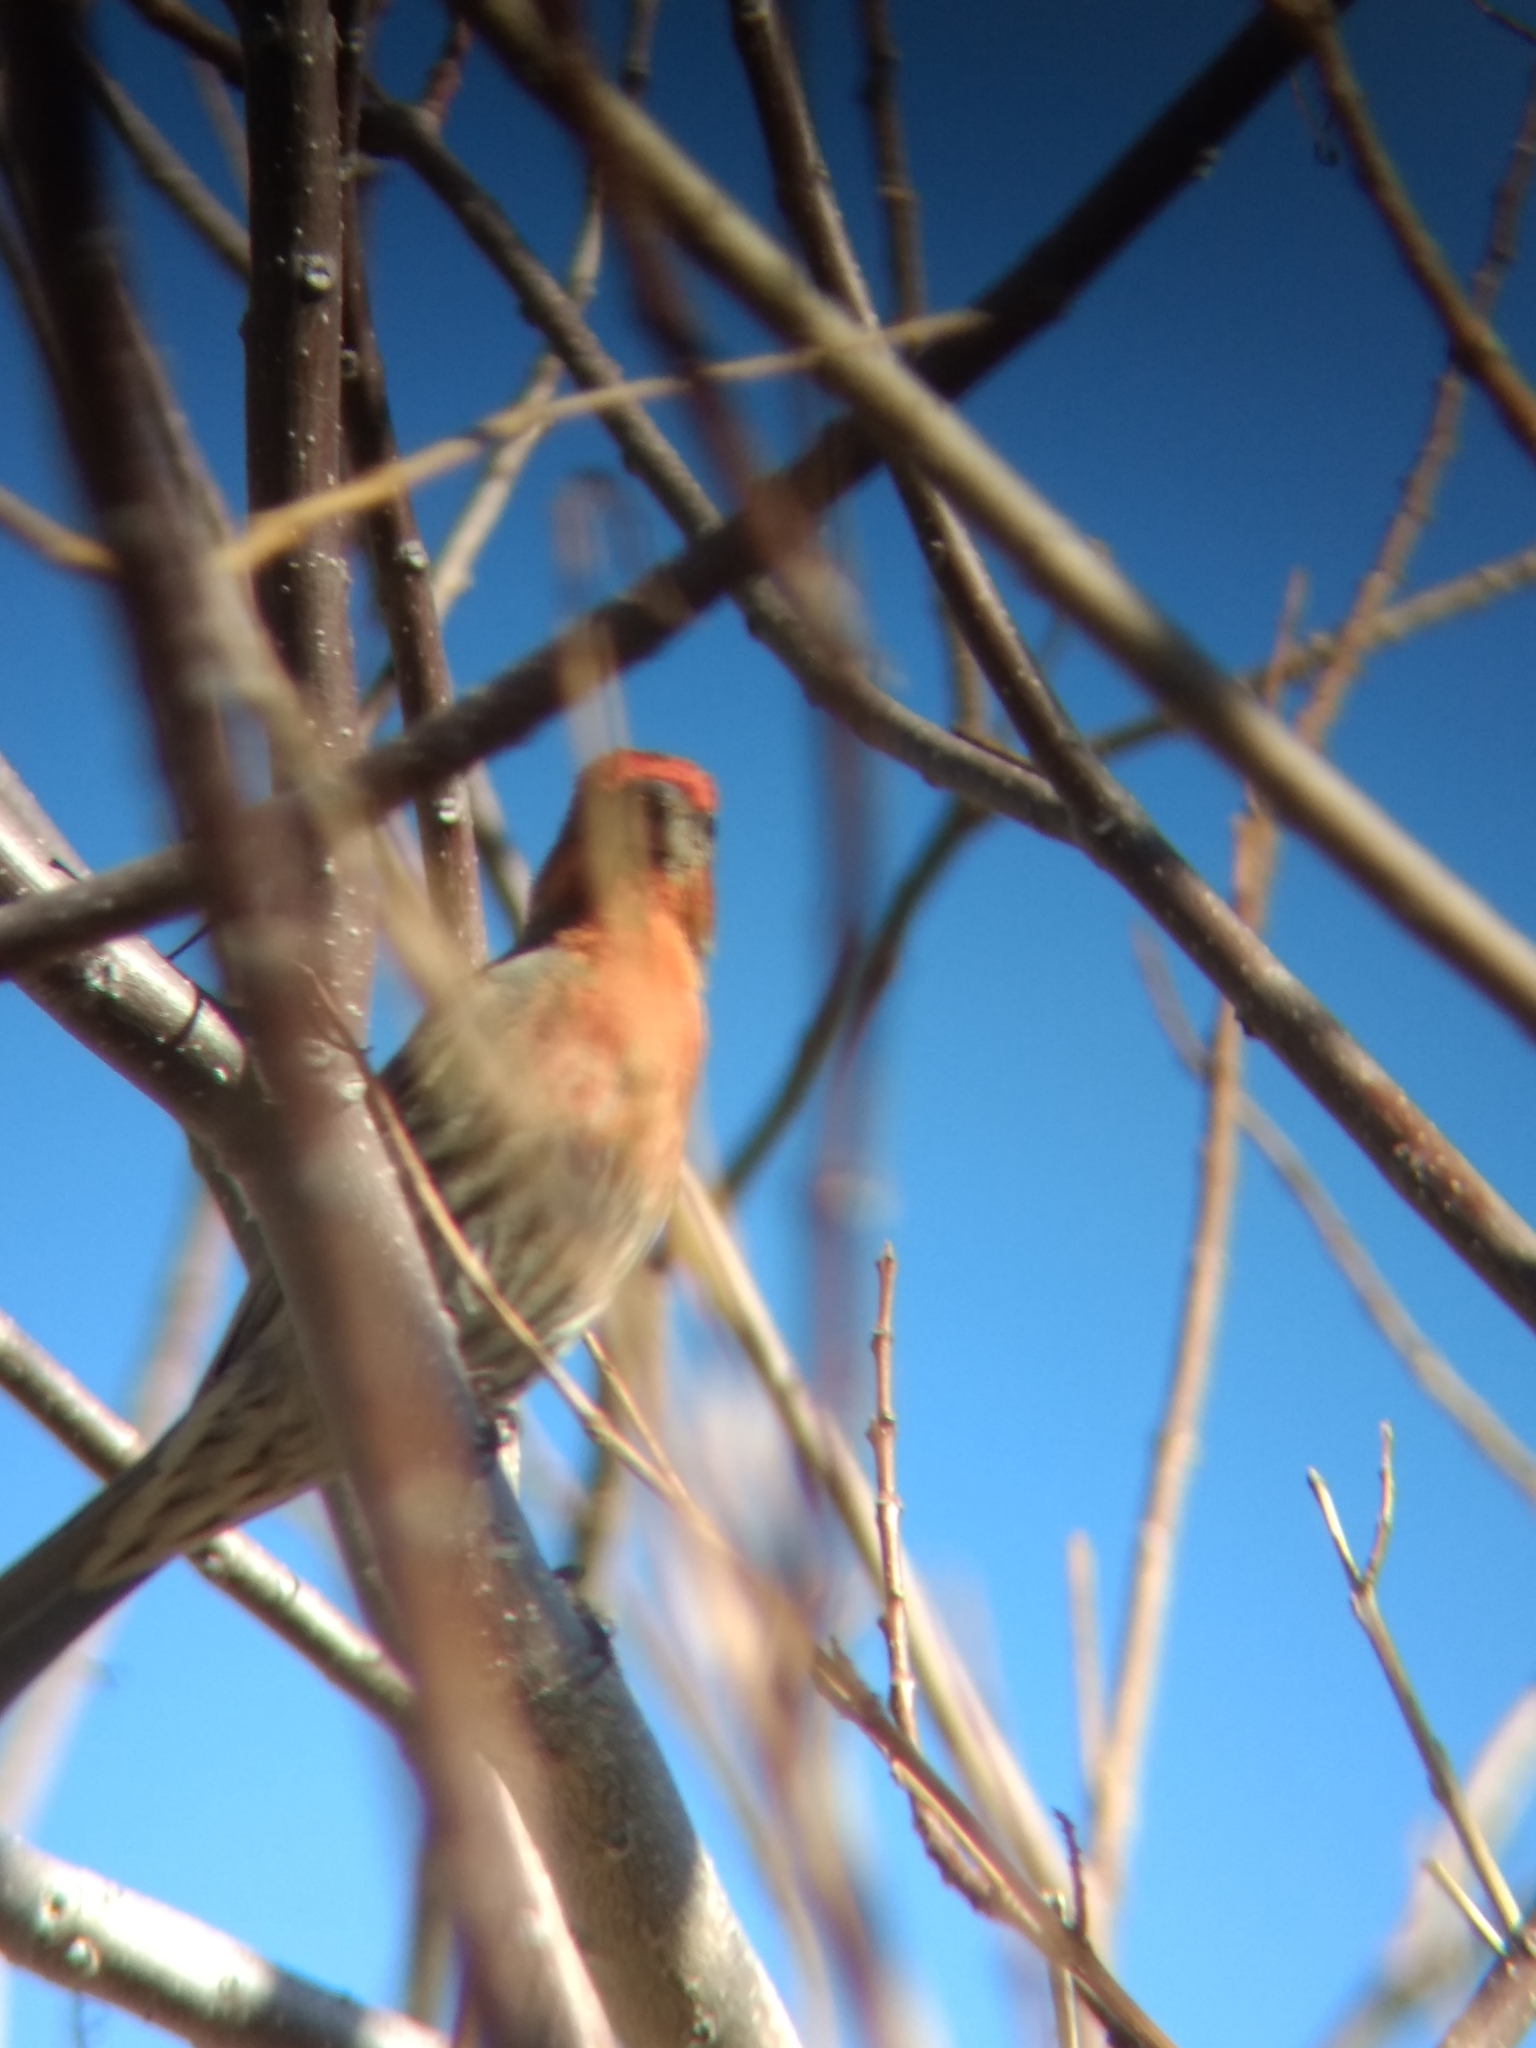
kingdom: Animalia
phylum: Chordata
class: Aves
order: Passeriformes
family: Fringillidae
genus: Haemorhous
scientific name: Haemorhous mexicanus
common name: House finch
